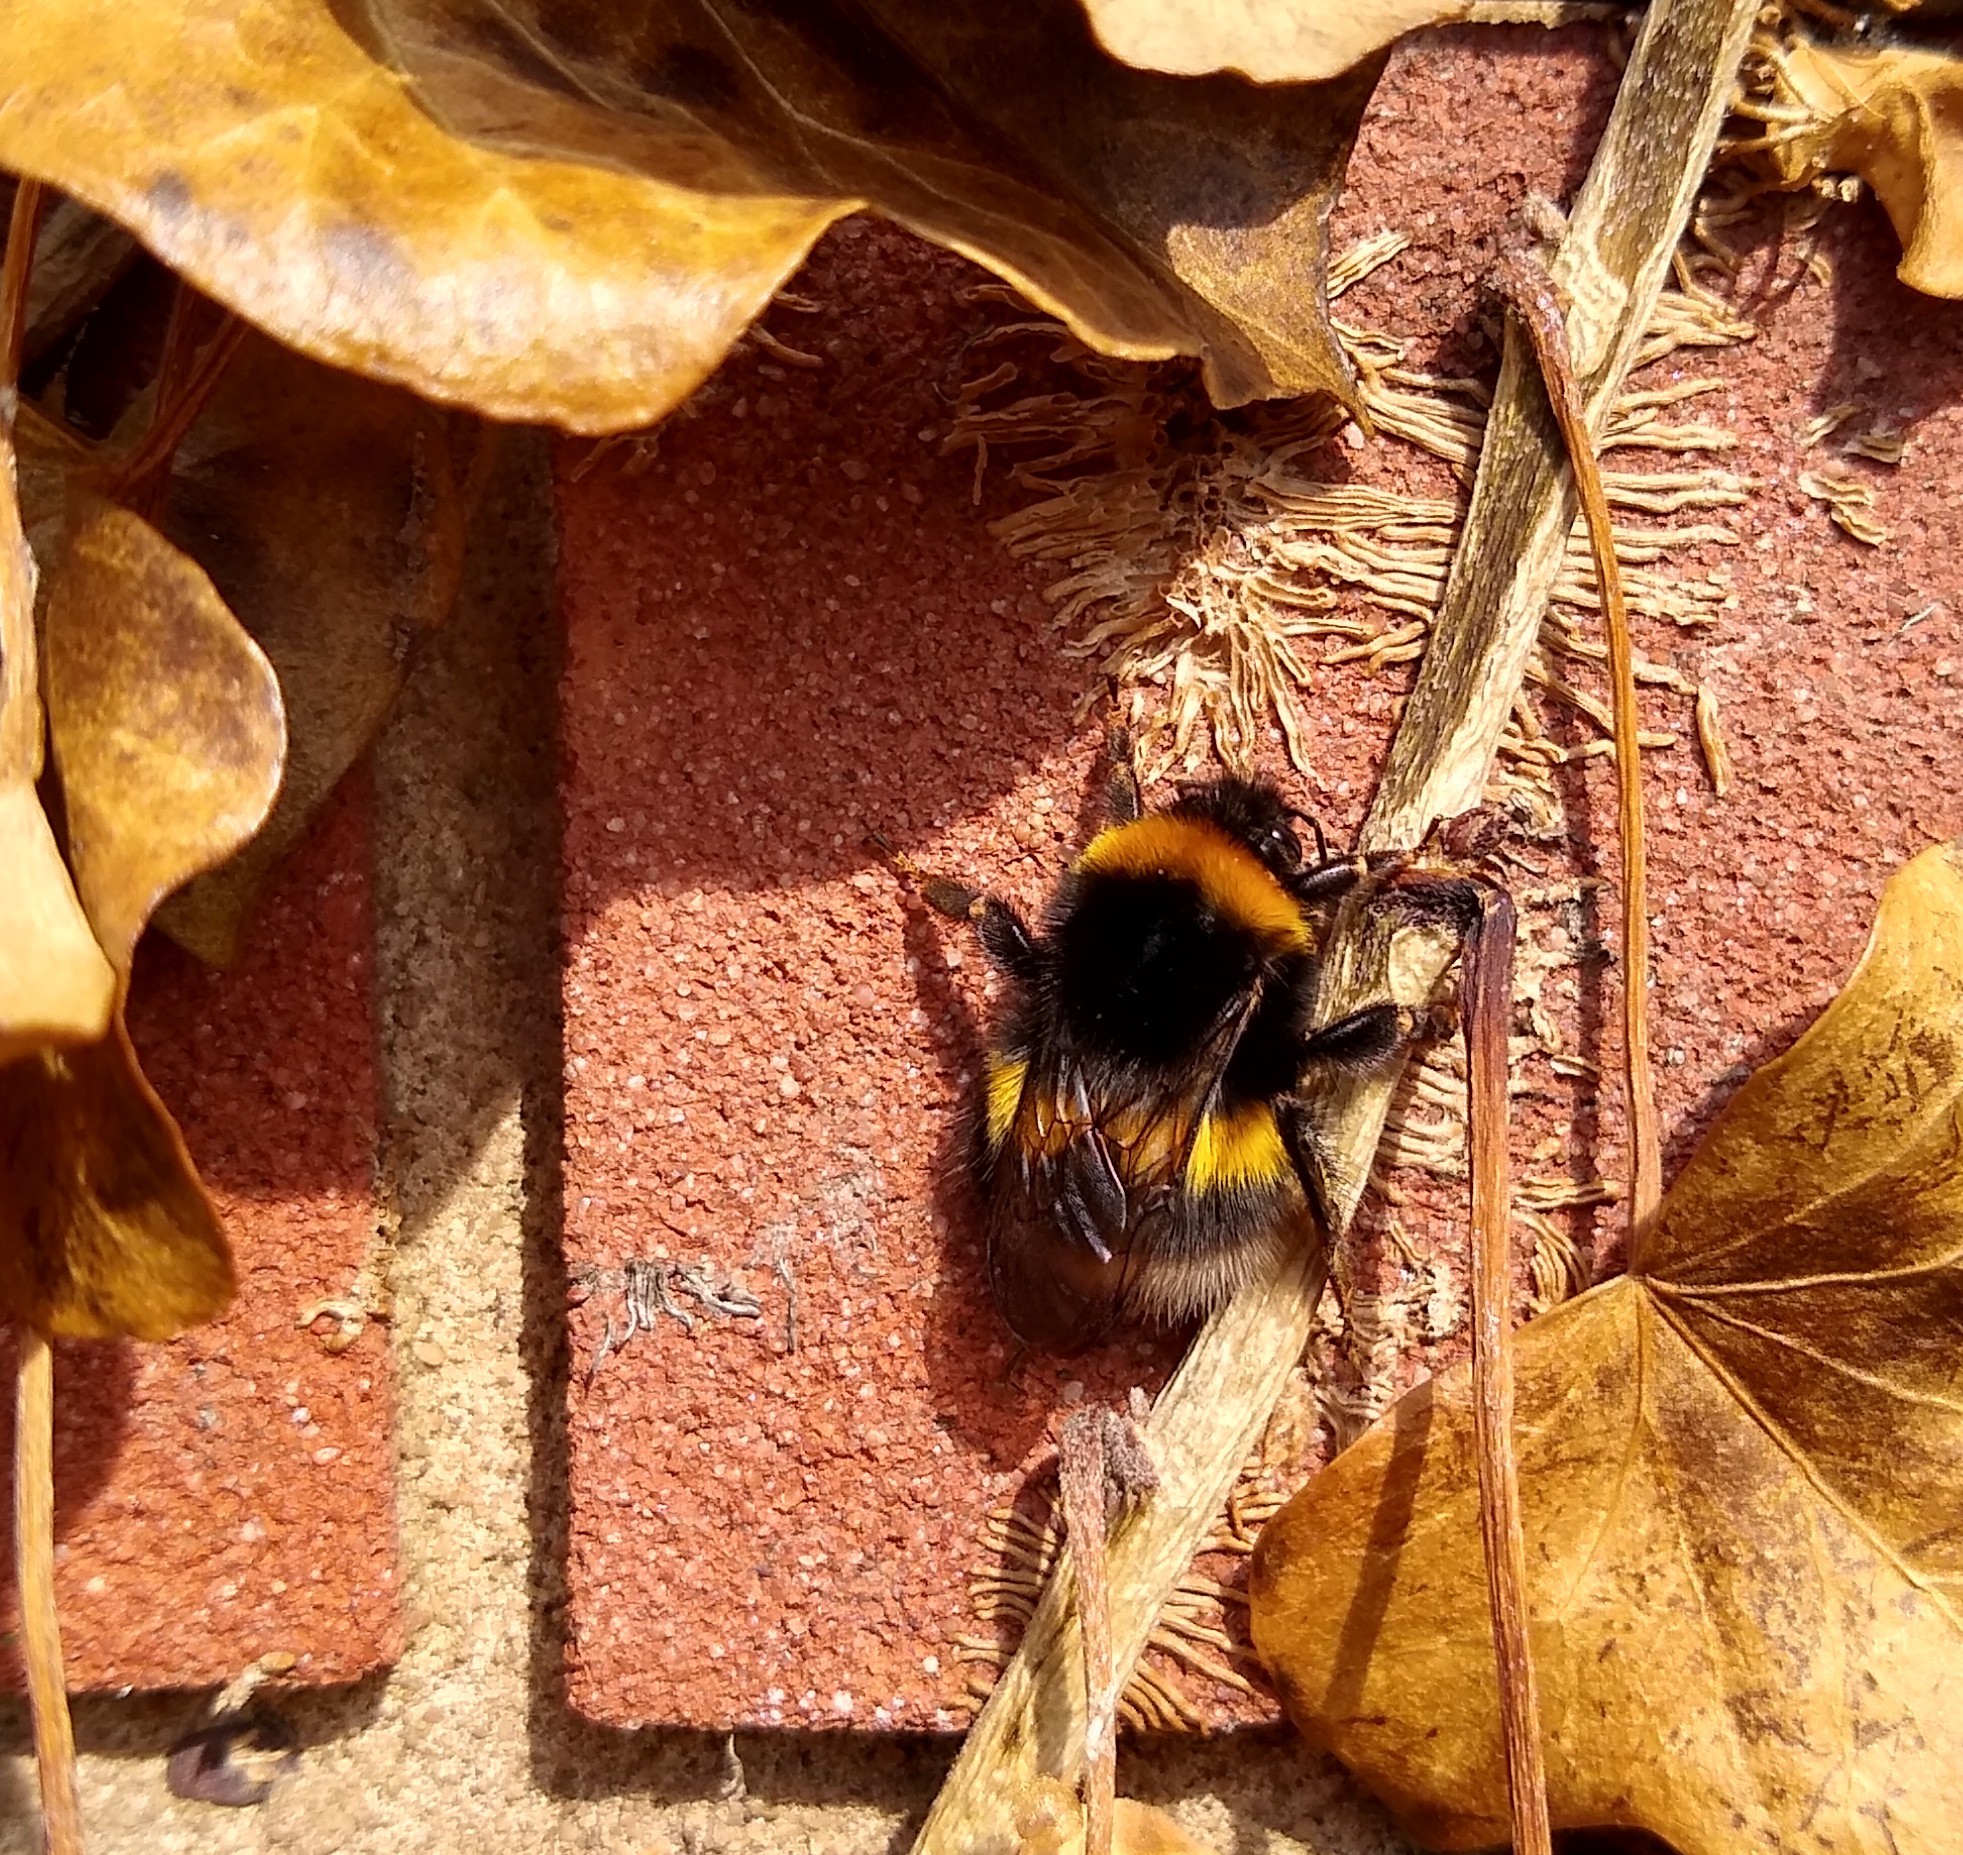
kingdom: Animalia
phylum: Arthropoda
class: Insecta
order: Hymenoptera
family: Apidae
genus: Bombus
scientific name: Bombus terrestris
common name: Buff-tailed bumblebee
